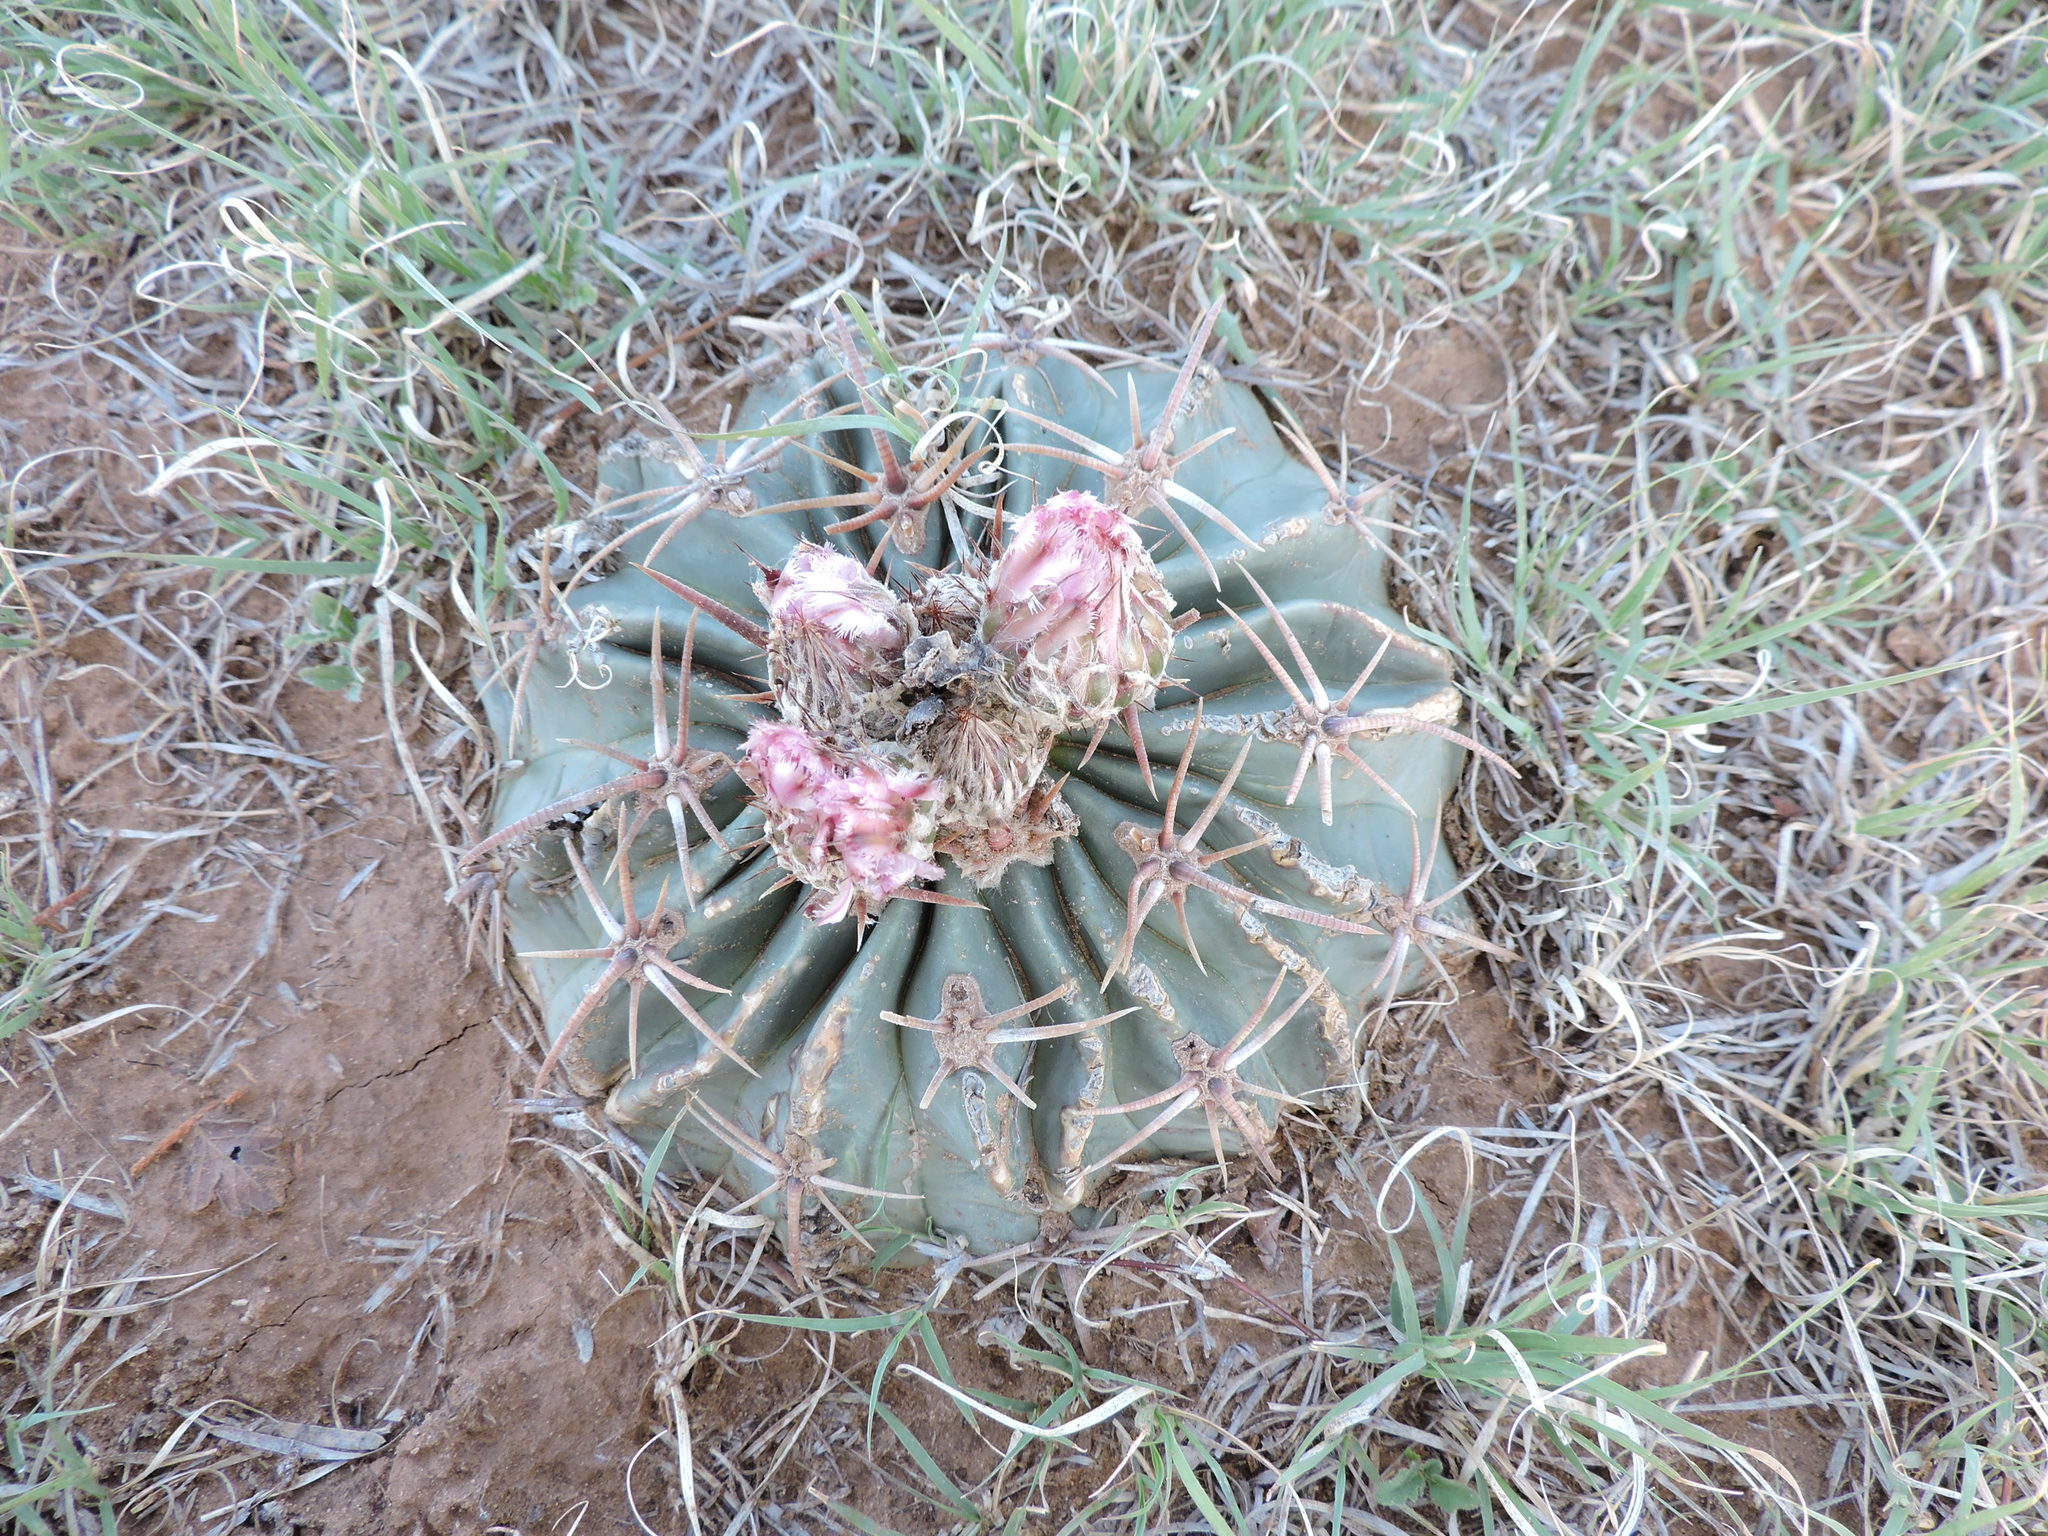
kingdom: Plantae
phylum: Tracheophyta
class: Magnoliopsida
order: Caryophyllales
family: Cactaceae
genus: Echinocactus
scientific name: Echinocactus texensis
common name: Devil's pincushion
